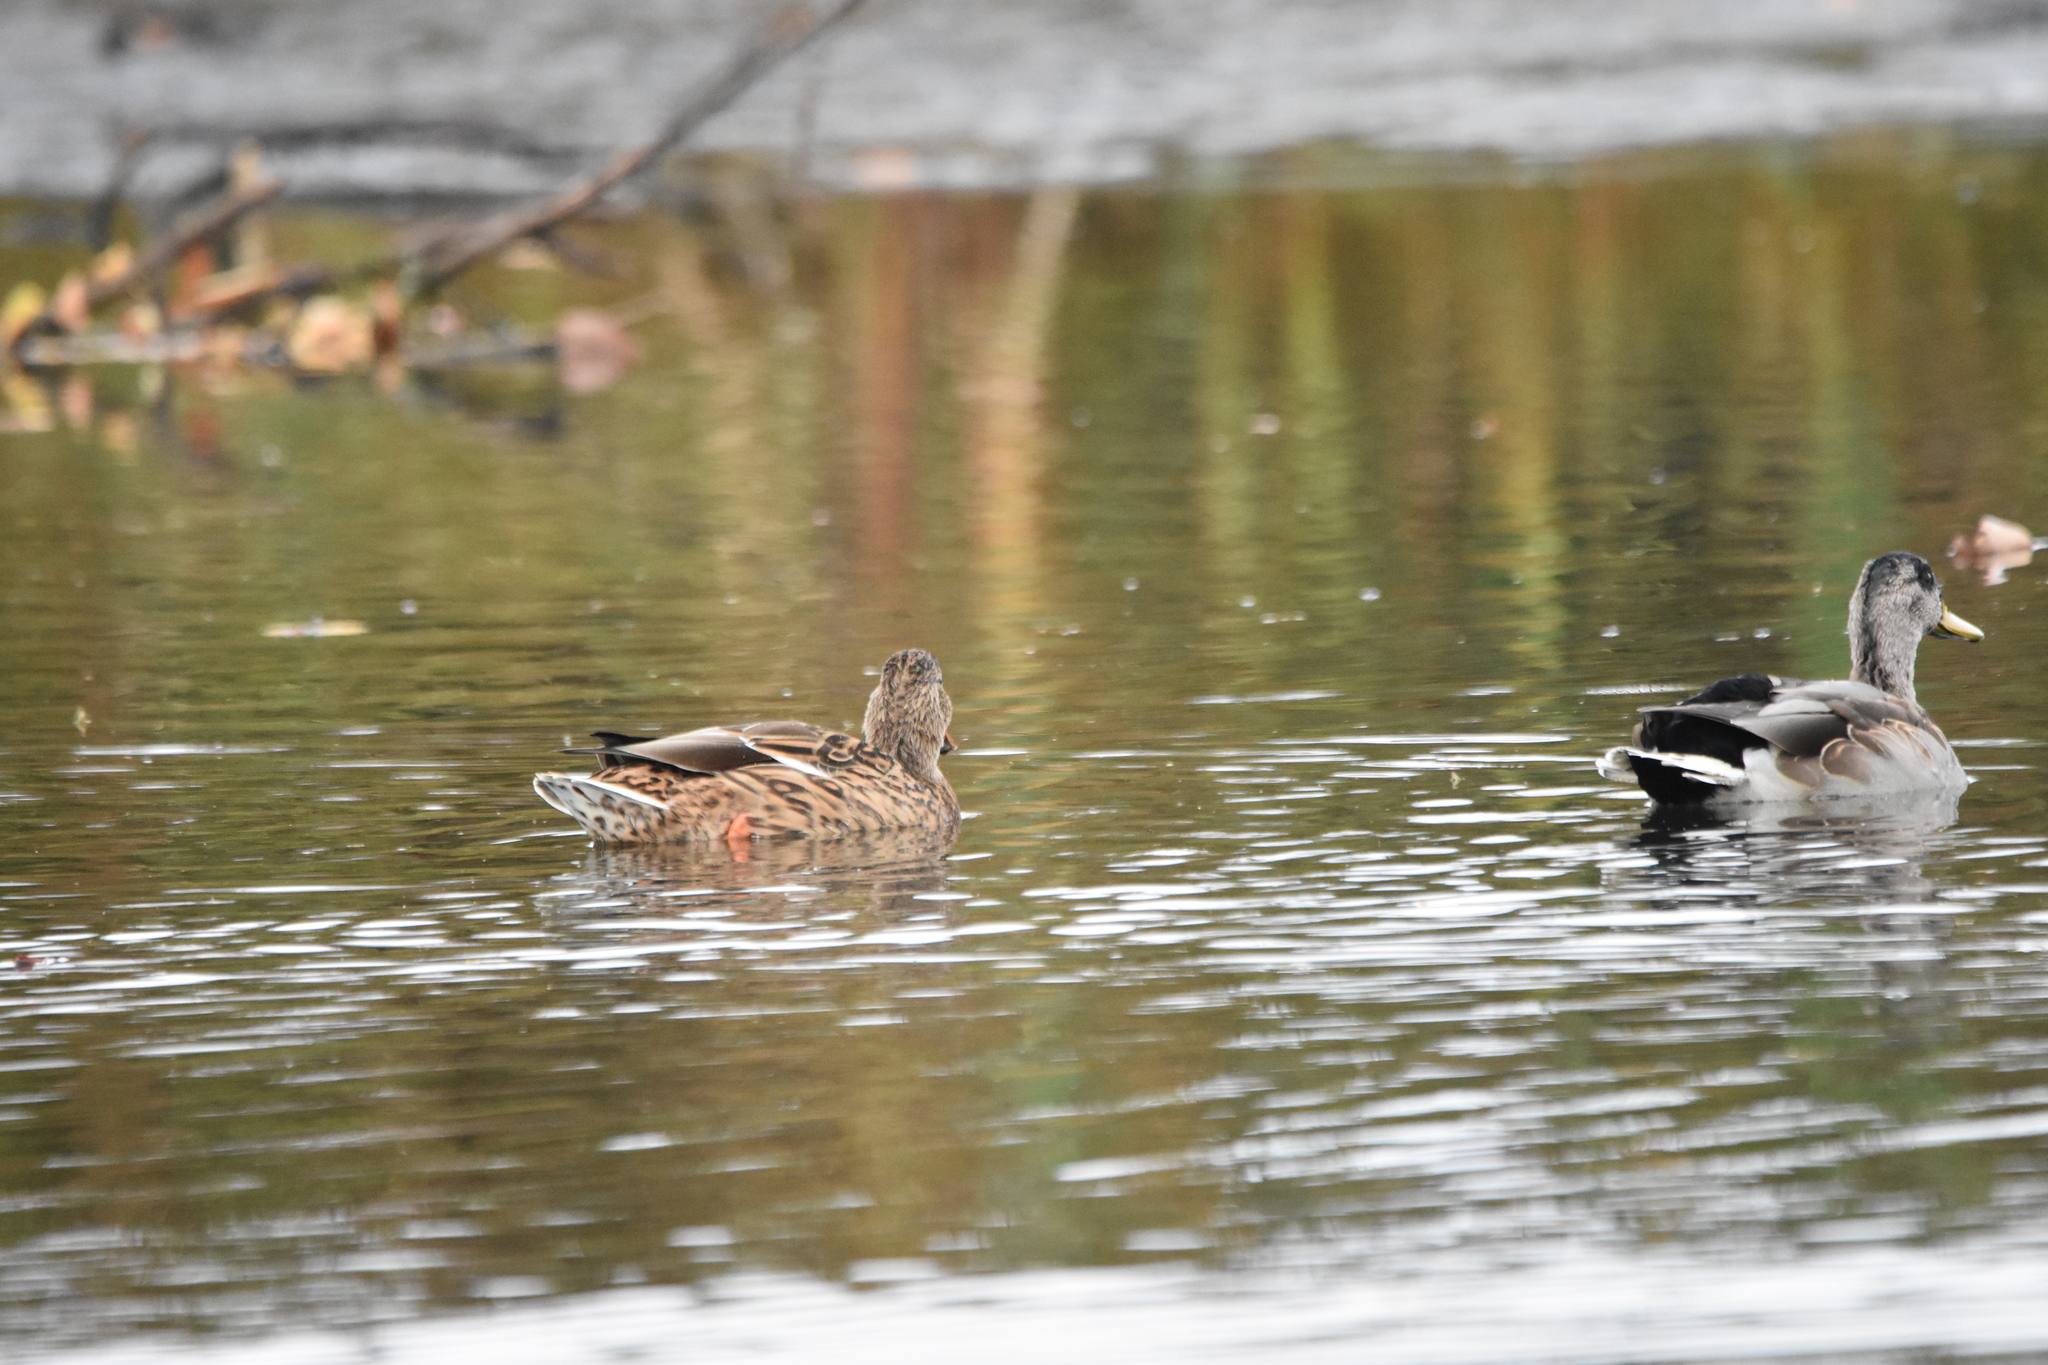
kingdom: Animalia
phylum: Chordata
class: Aves
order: Anseriformes
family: Anatidae
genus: Anas
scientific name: Anas platyrhynchos
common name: Mallard
